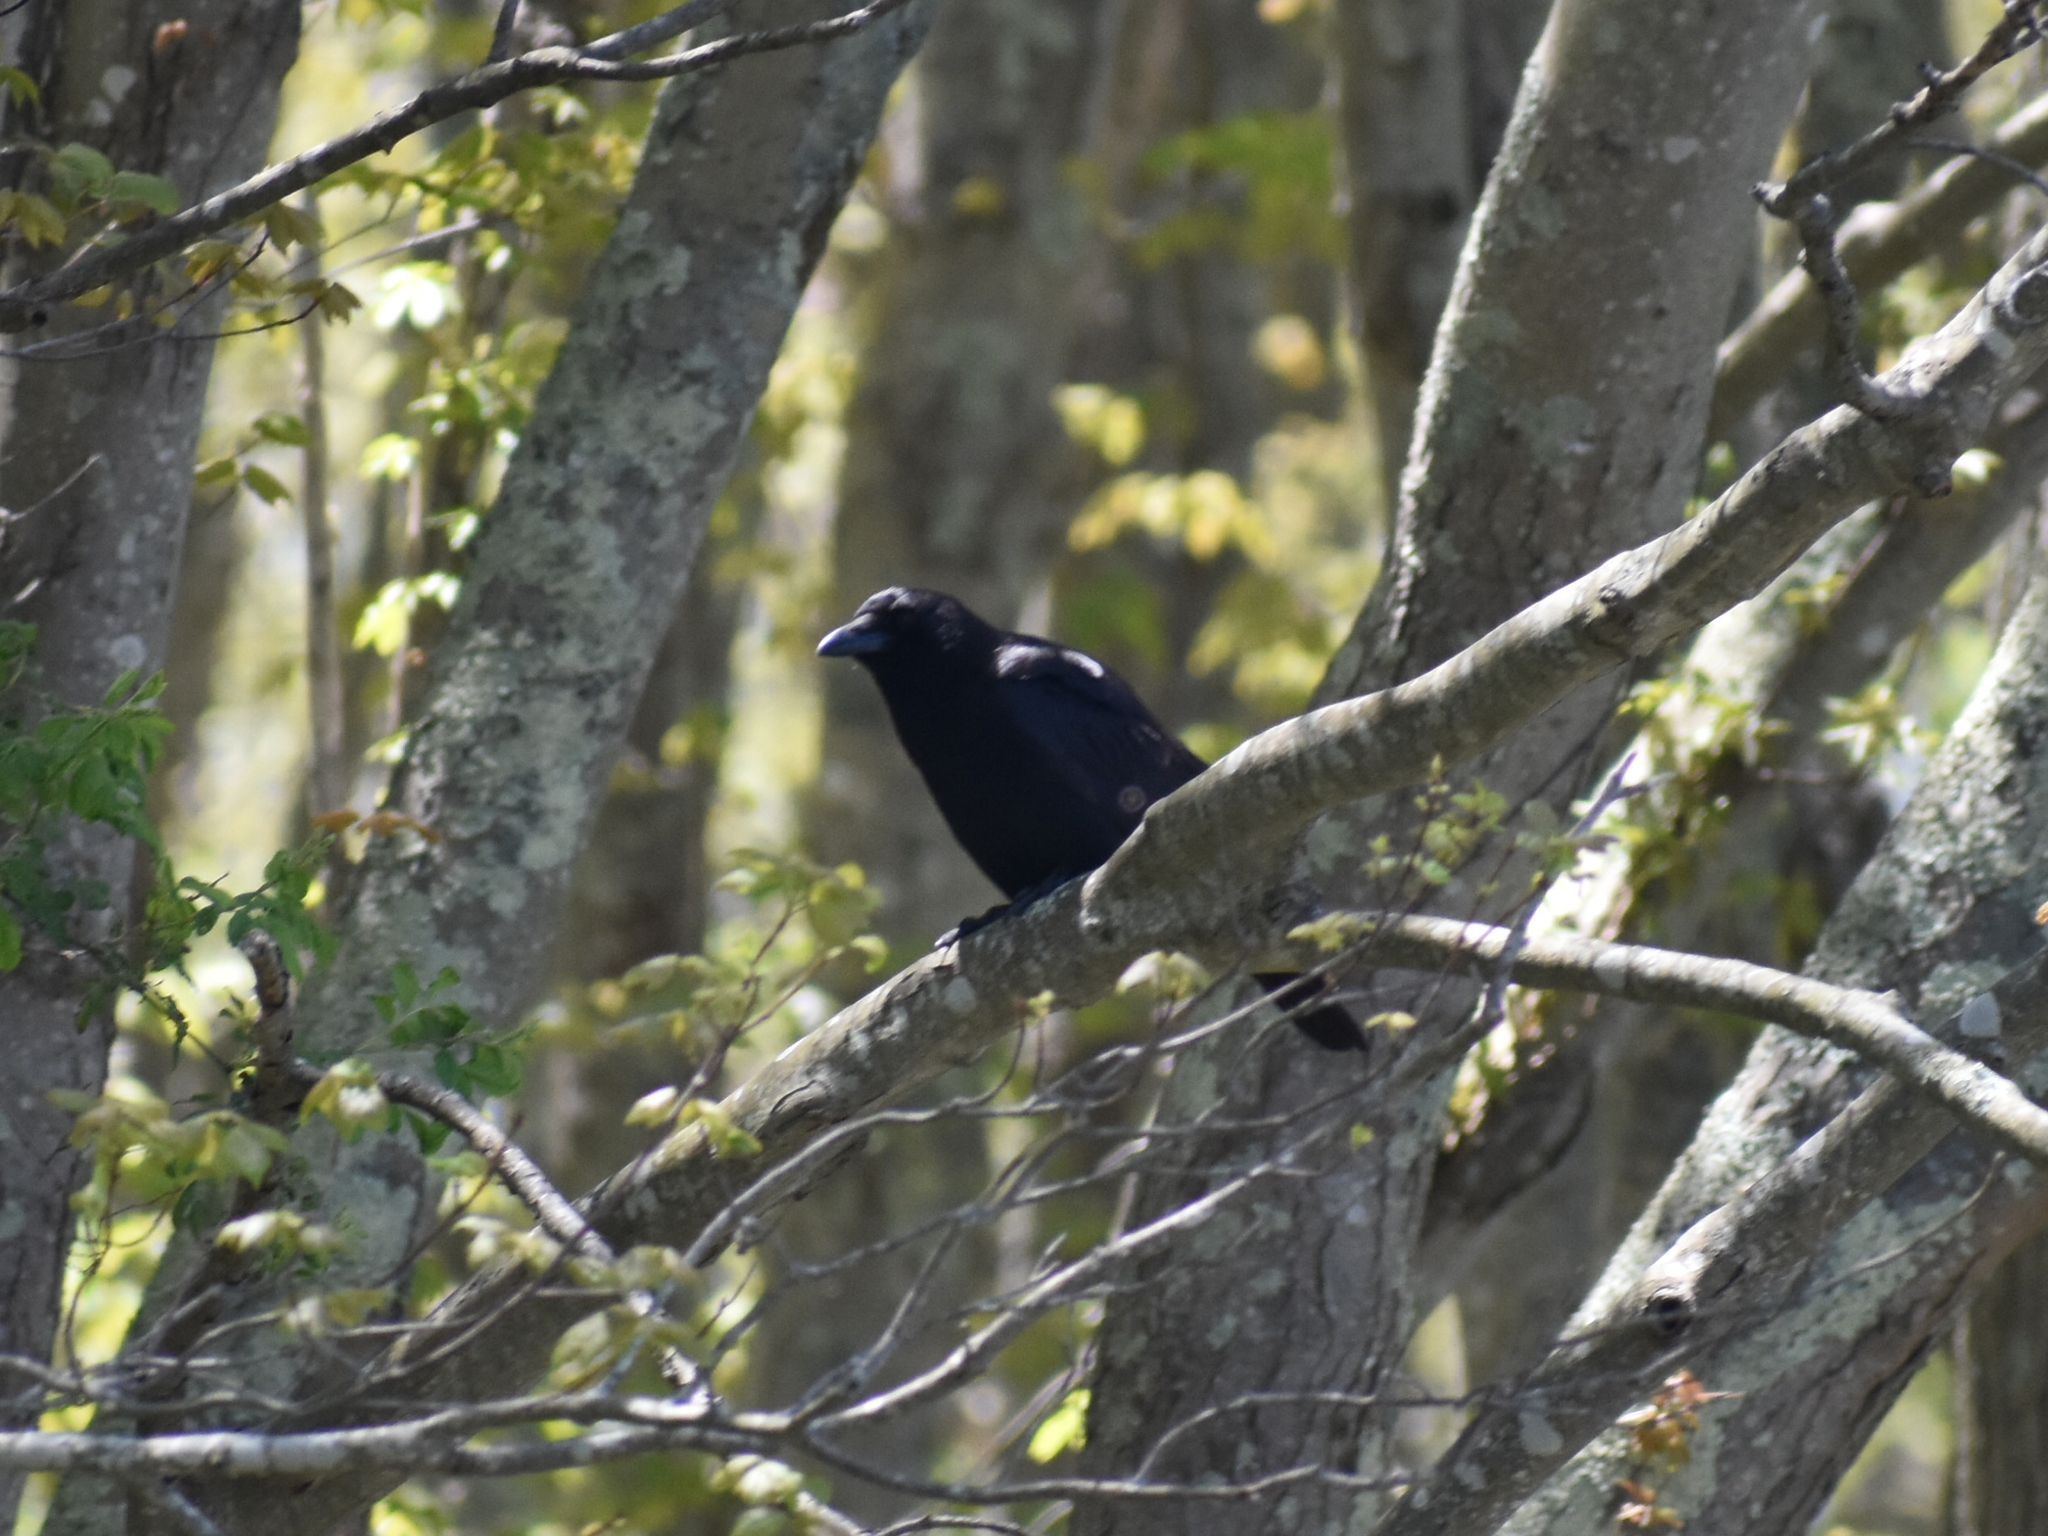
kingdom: Animalia
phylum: Chordata
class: Aves
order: Passeriformes
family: Corvidae
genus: Corvus
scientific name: Corvus
